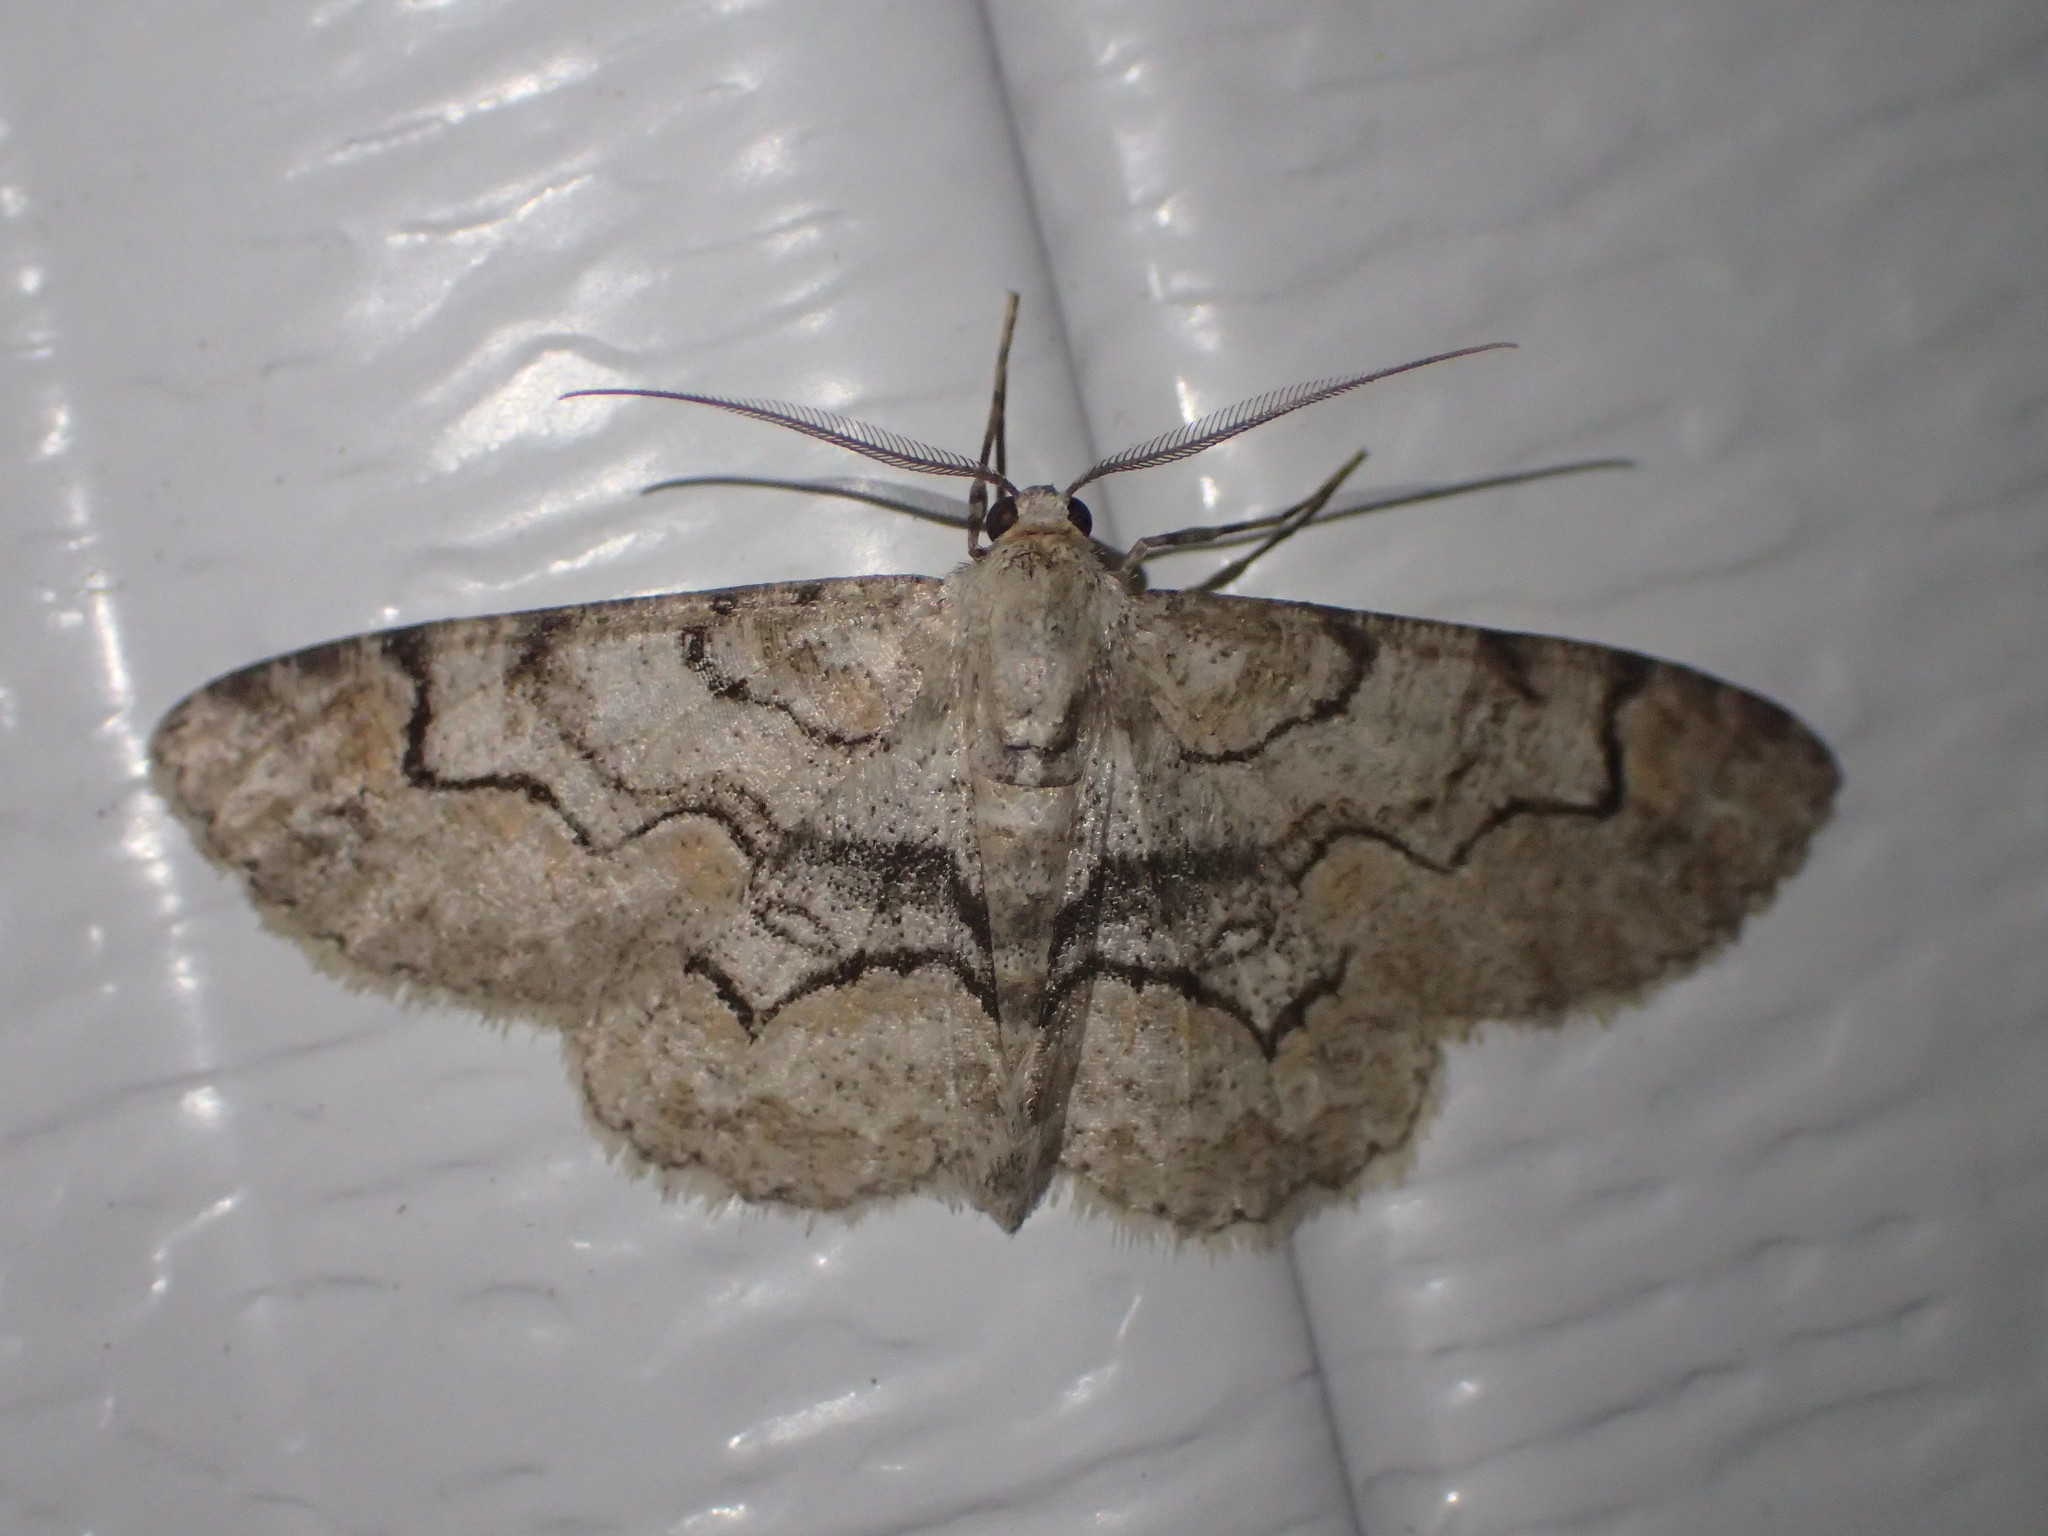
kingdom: Animalia
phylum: Arthropoda
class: Insecta
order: Lepidoptera
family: Geometridae
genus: Iridopsis
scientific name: Iridopsis ephyraria
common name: Pale-winged gray
